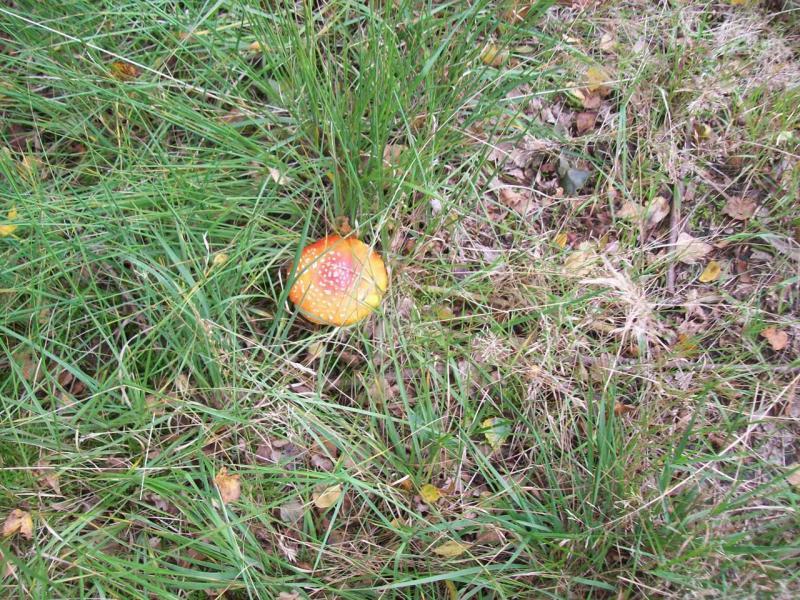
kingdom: Fungi
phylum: Basidiomycota
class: Agaricomycetes
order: Agaricales
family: Amanitaceae
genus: Amanita
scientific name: Amanita muscaria
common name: Fly agaric
